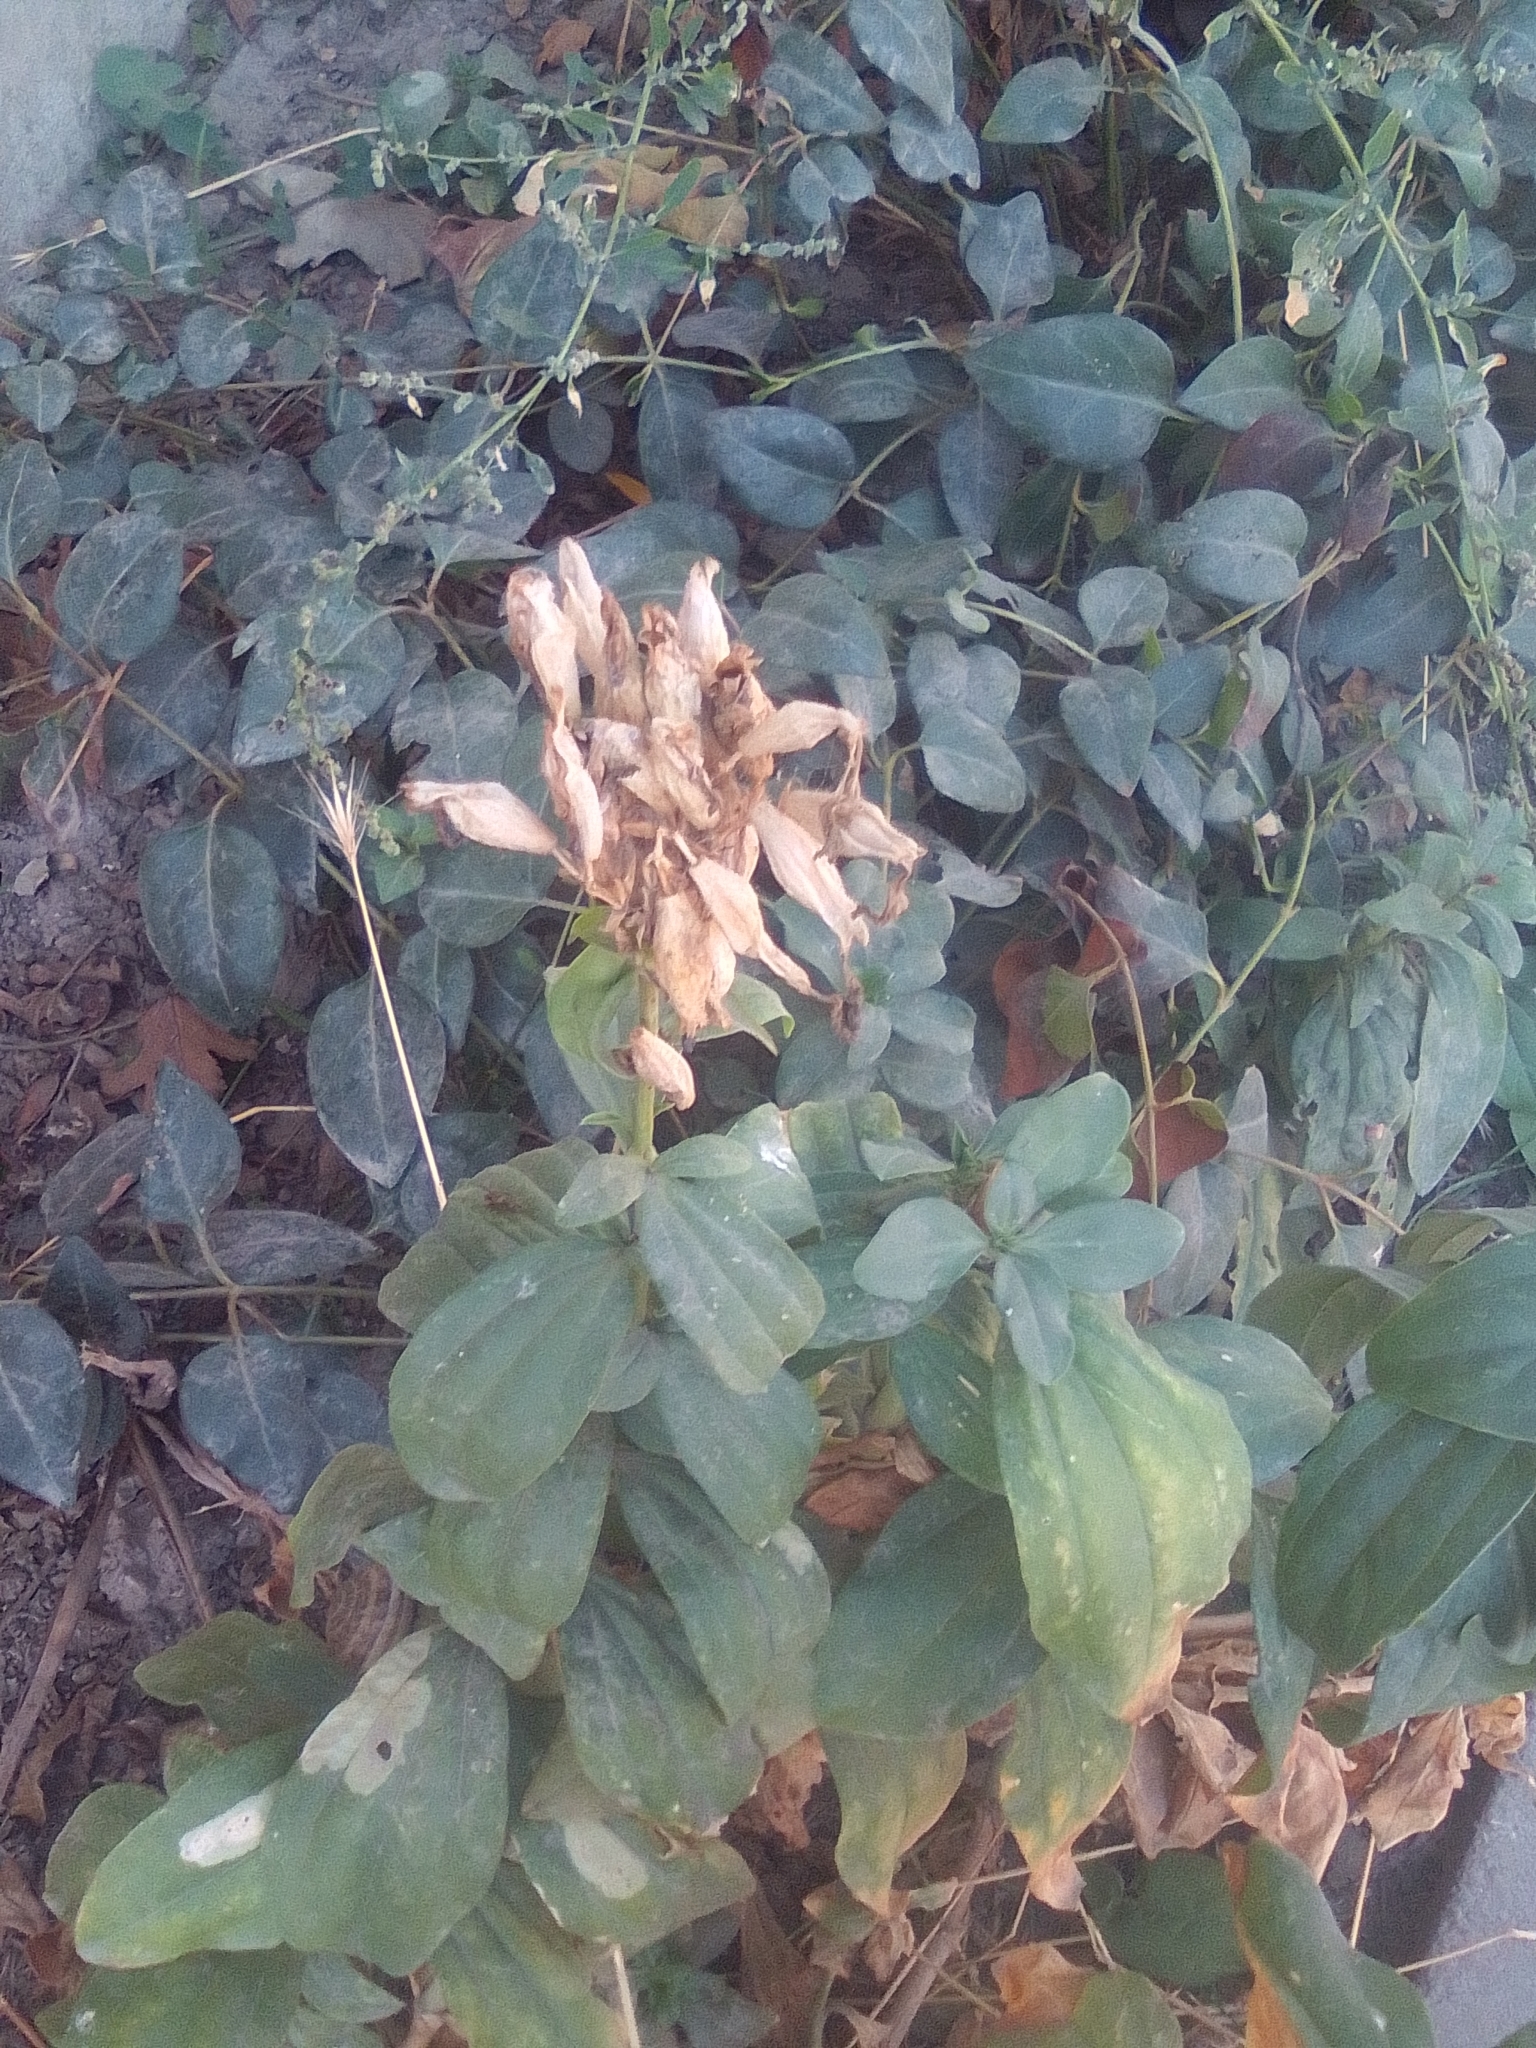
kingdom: Plantae
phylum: Tracheophyta
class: Magnoliopsida
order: Caryophyllales
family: Caryophyllaceae
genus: Saponaria
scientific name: Saponaria officinalis
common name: Soapwort
